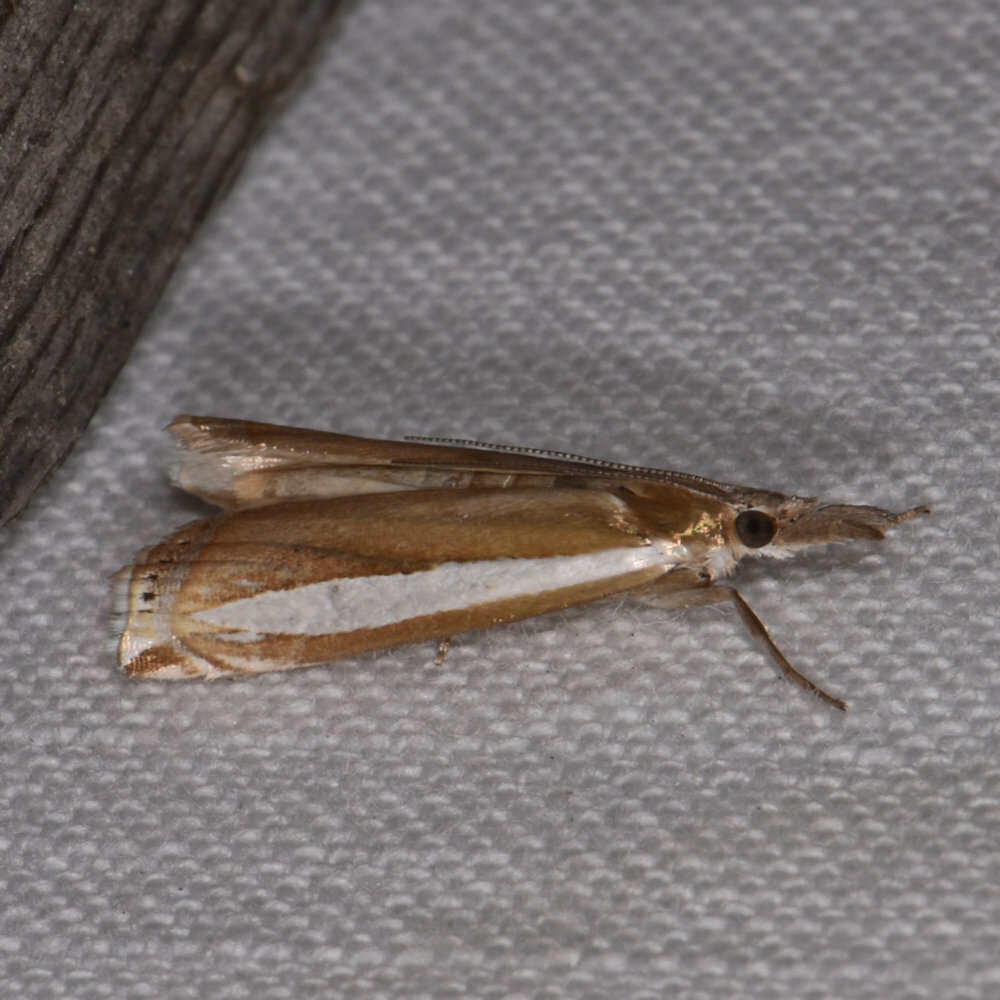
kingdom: Animalia
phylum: Arthropoda
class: Insecta
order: Lepidoptera
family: Crambidae
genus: Crambus
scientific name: Crambus praefectellus
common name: Common grass-veneer
